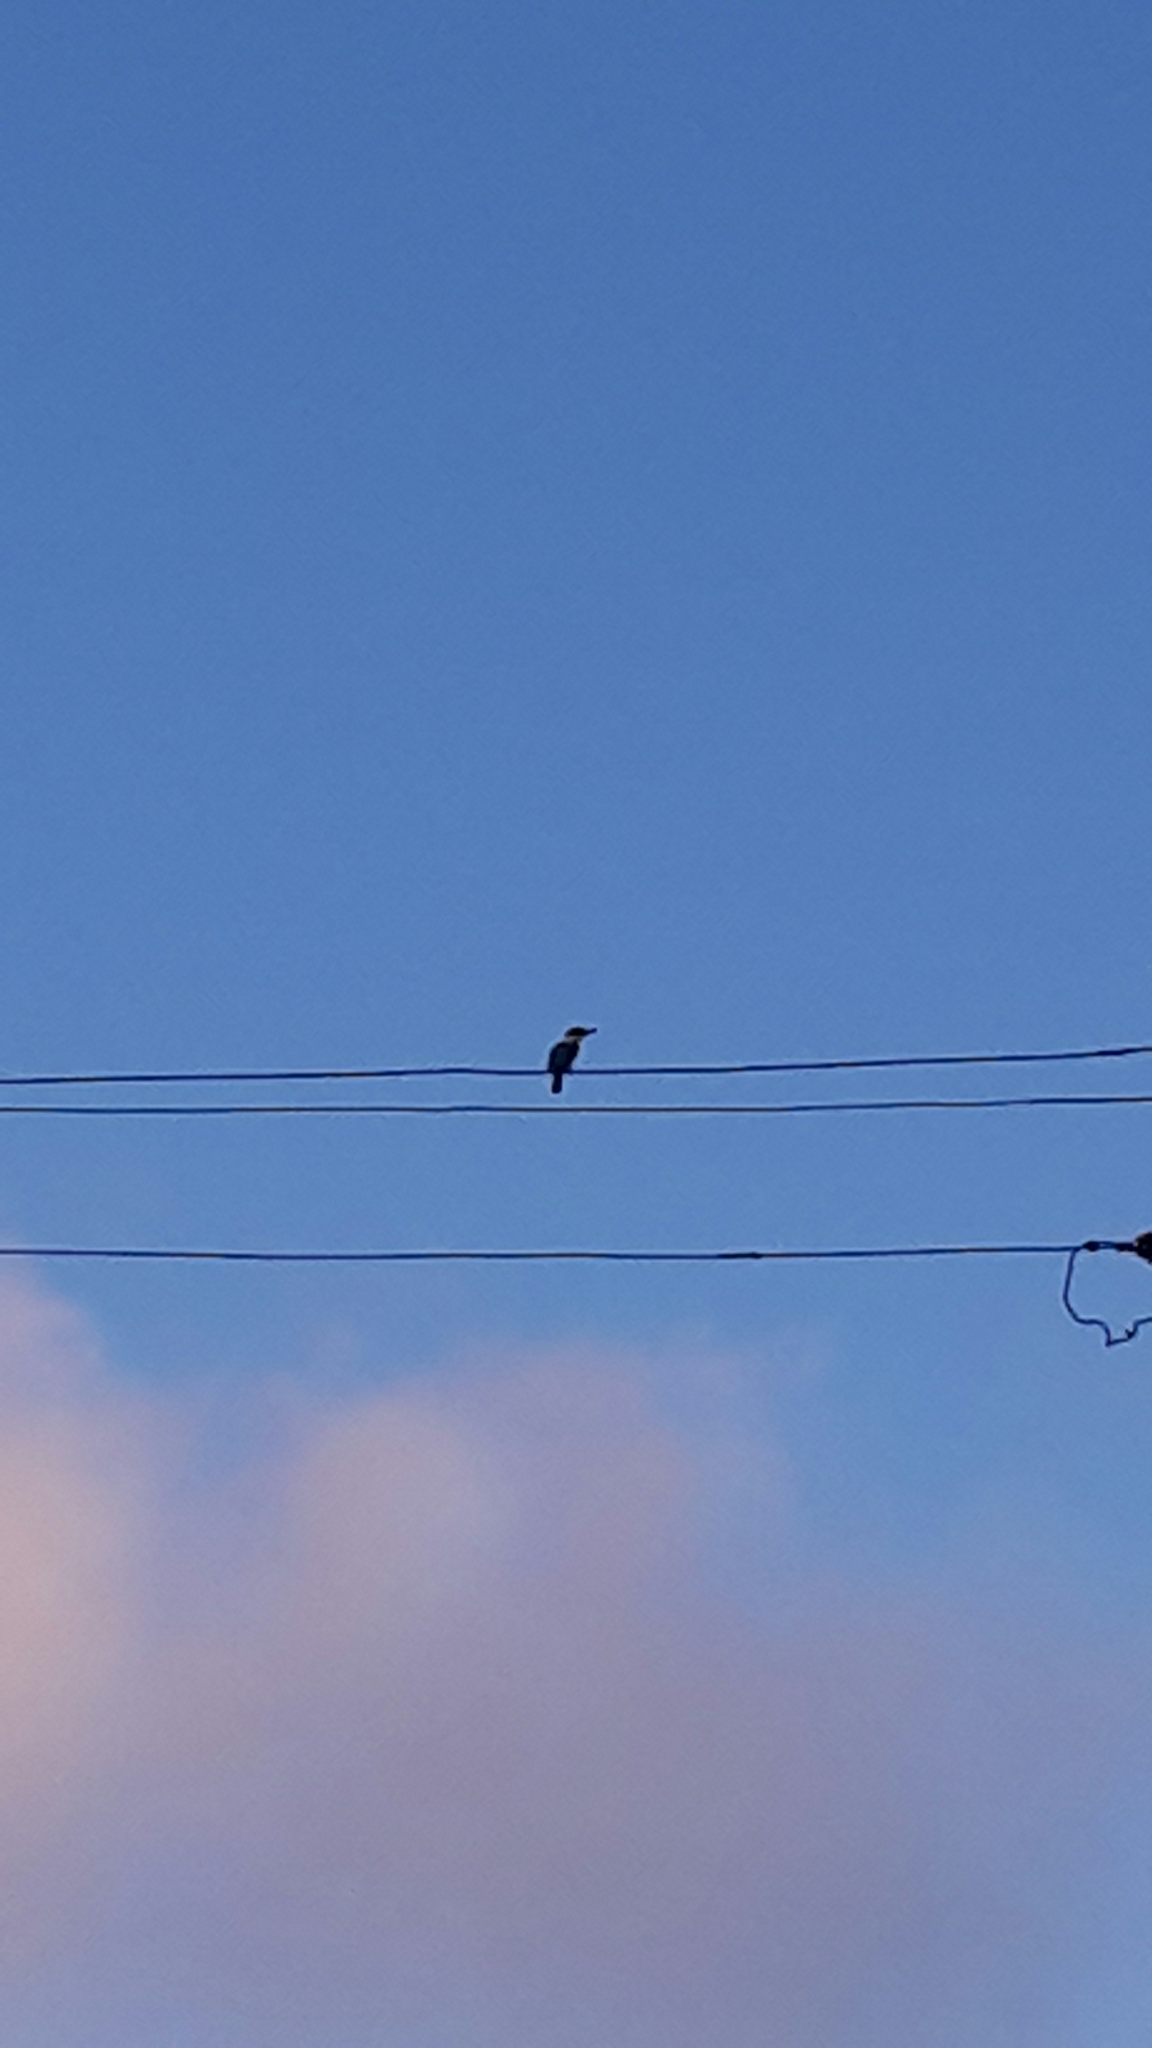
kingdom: Animalia
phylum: Chordata
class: Aves
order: Coraciiformes
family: Alcedinidae
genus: Todiramphus
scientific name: Todiramphus sanctus
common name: Sacred kingfisher
